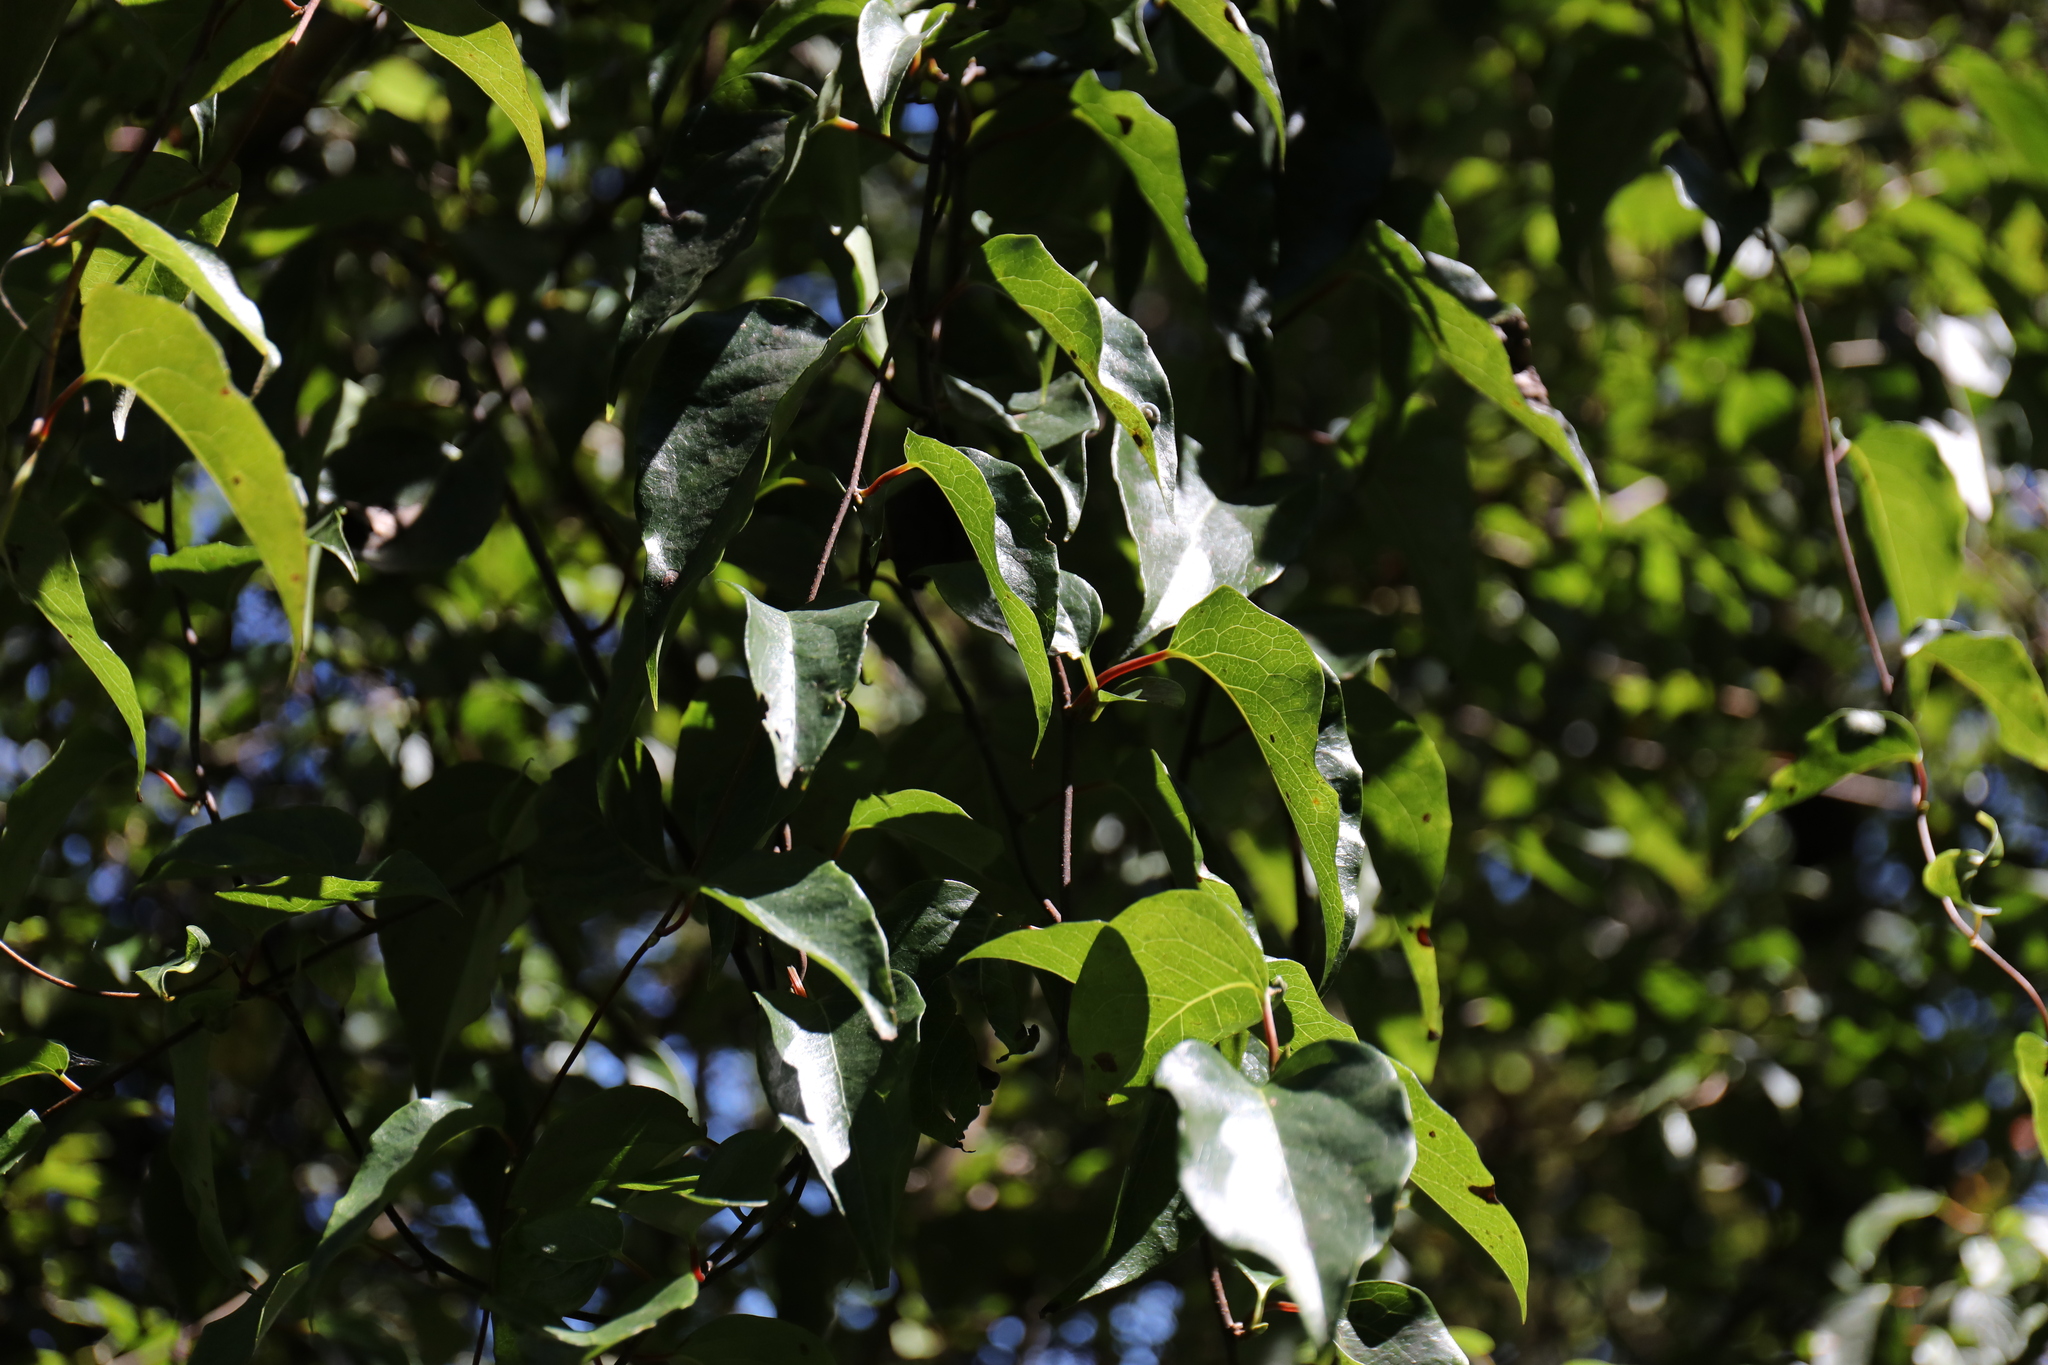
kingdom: Plantae
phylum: Tracheophyta
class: Magnoliopsida
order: Austrobaileyales
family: Schisandraceae
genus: Schisandra
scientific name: Schisandra arisanensis
